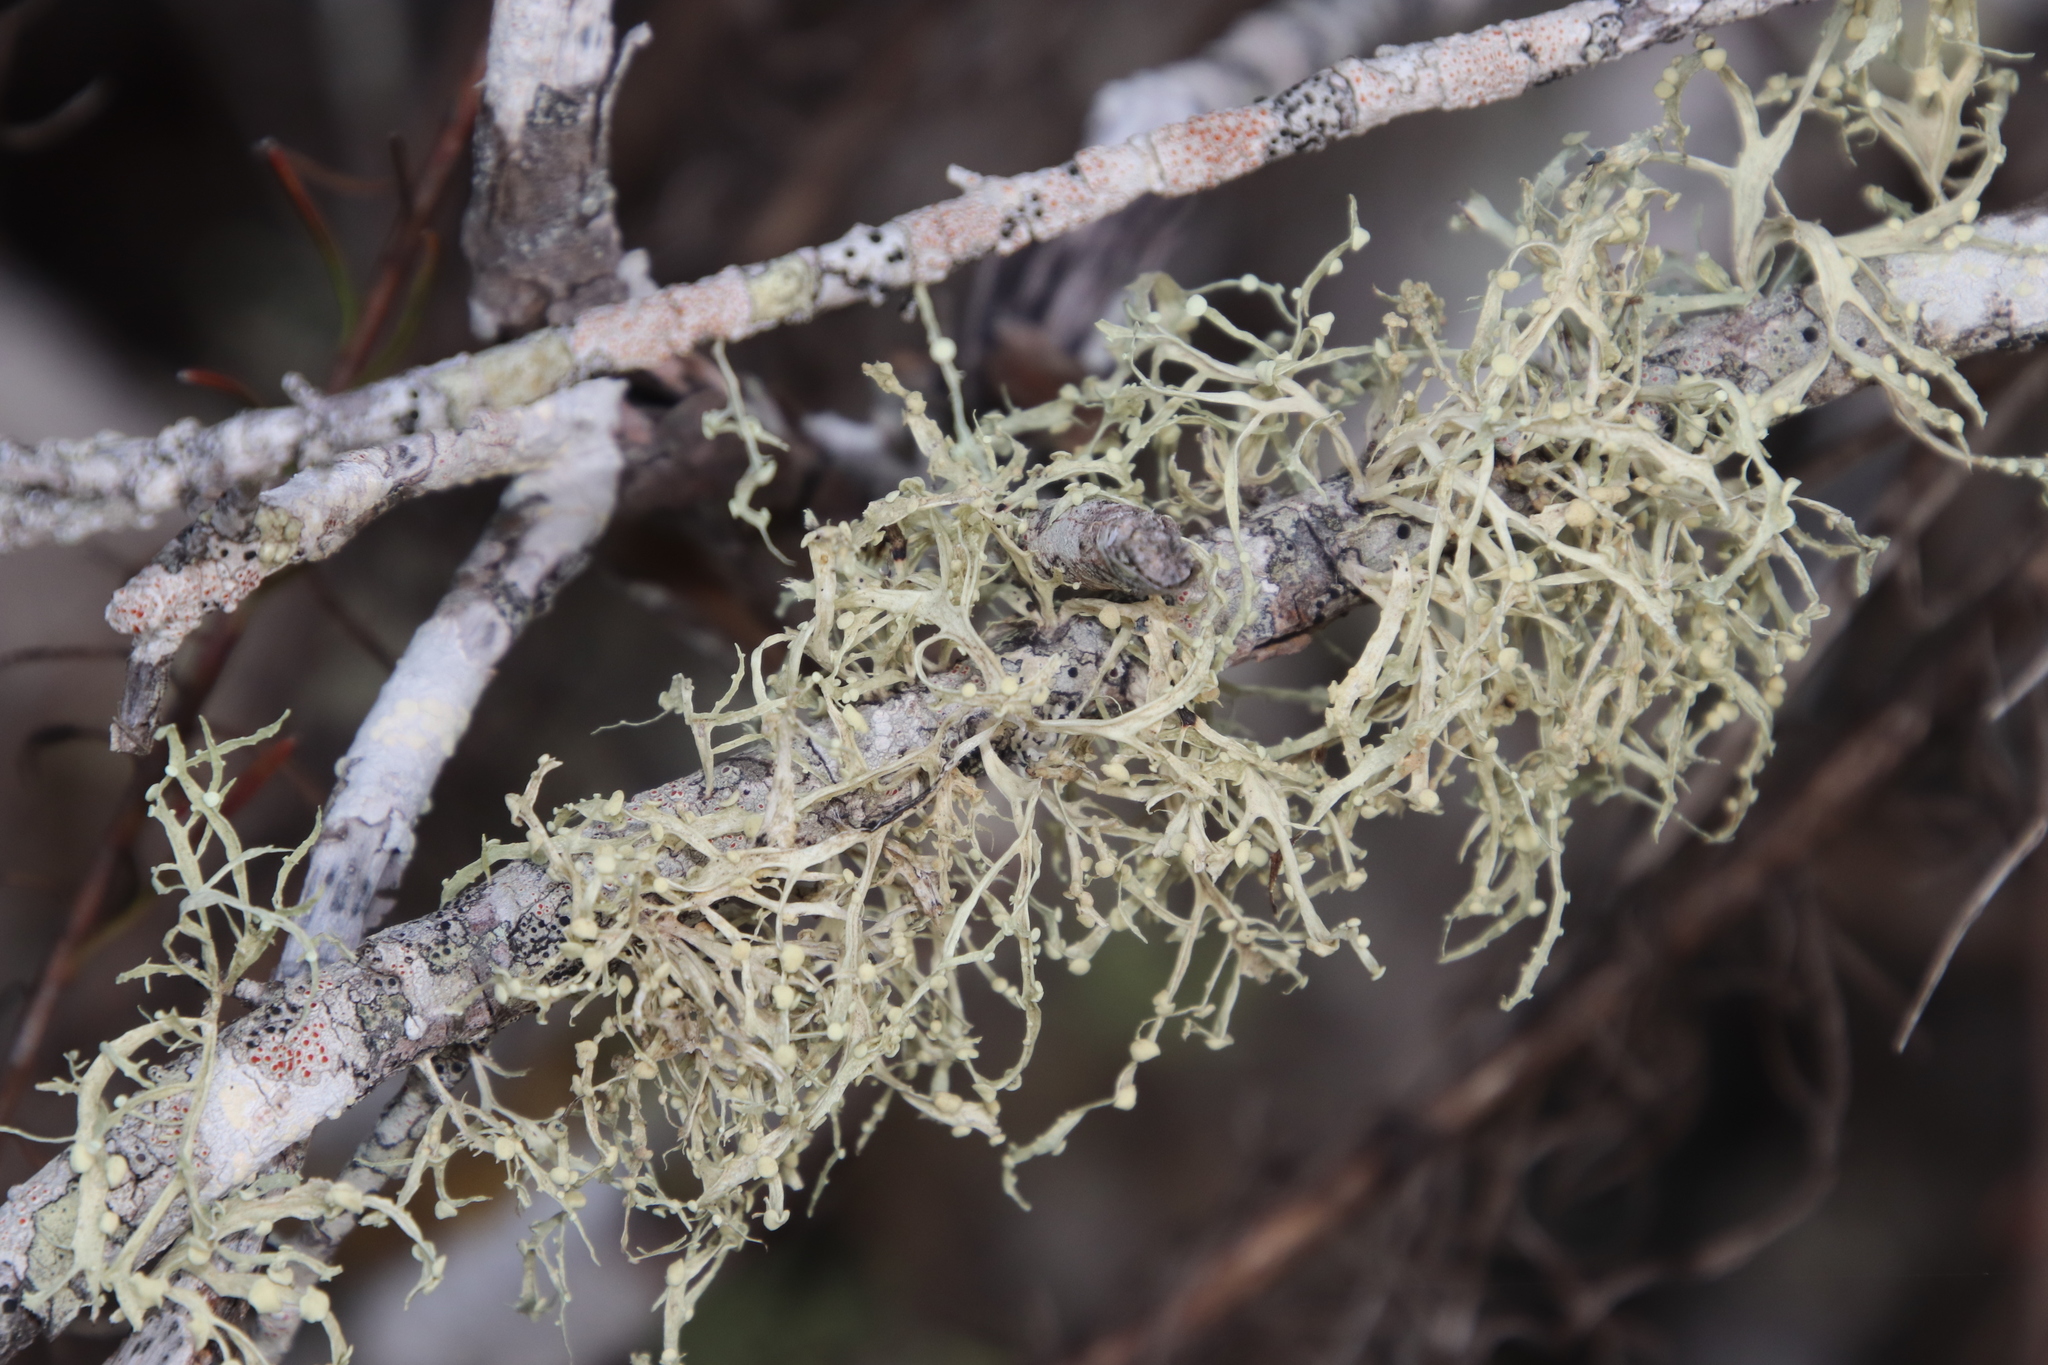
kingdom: Fungi
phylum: Ascomycota
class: Lecanoromycetes
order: Lecanorales
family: Ramalinaceae
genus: Ramalina
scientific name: Ramalina celastri
